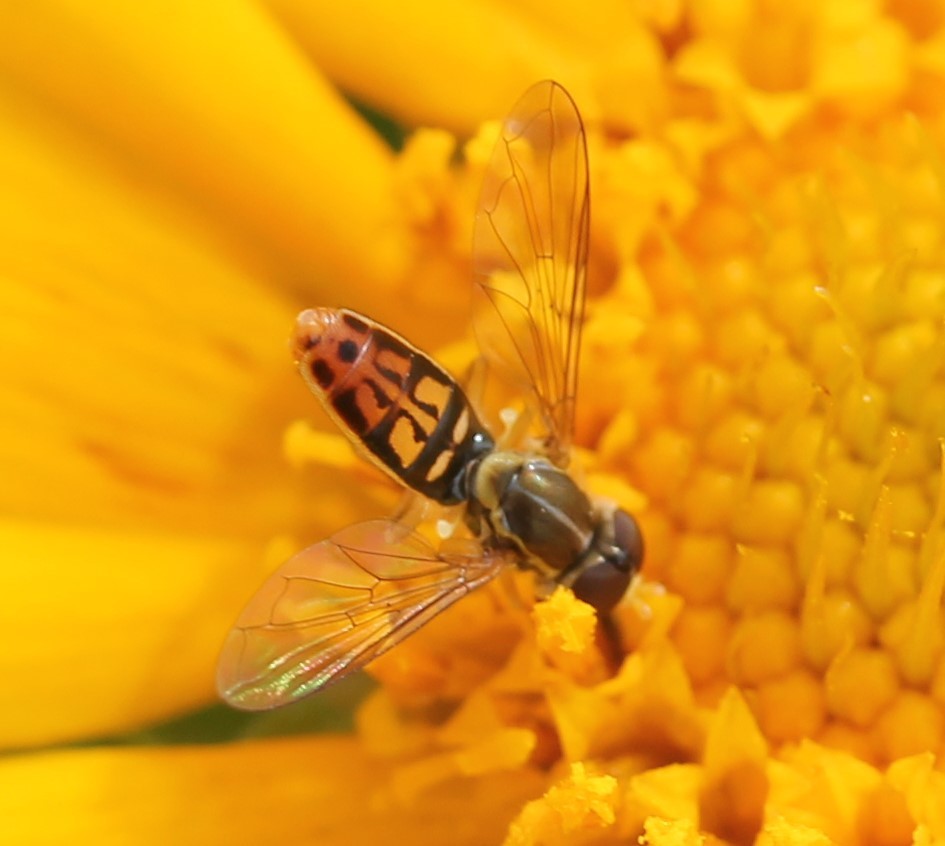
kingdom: Animalia
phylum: Arthropoda
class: Insecta
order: Diptera
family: Syrphidae
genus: Toxomerus
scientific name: Toxomerus marginatus
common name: Syrphid fly
